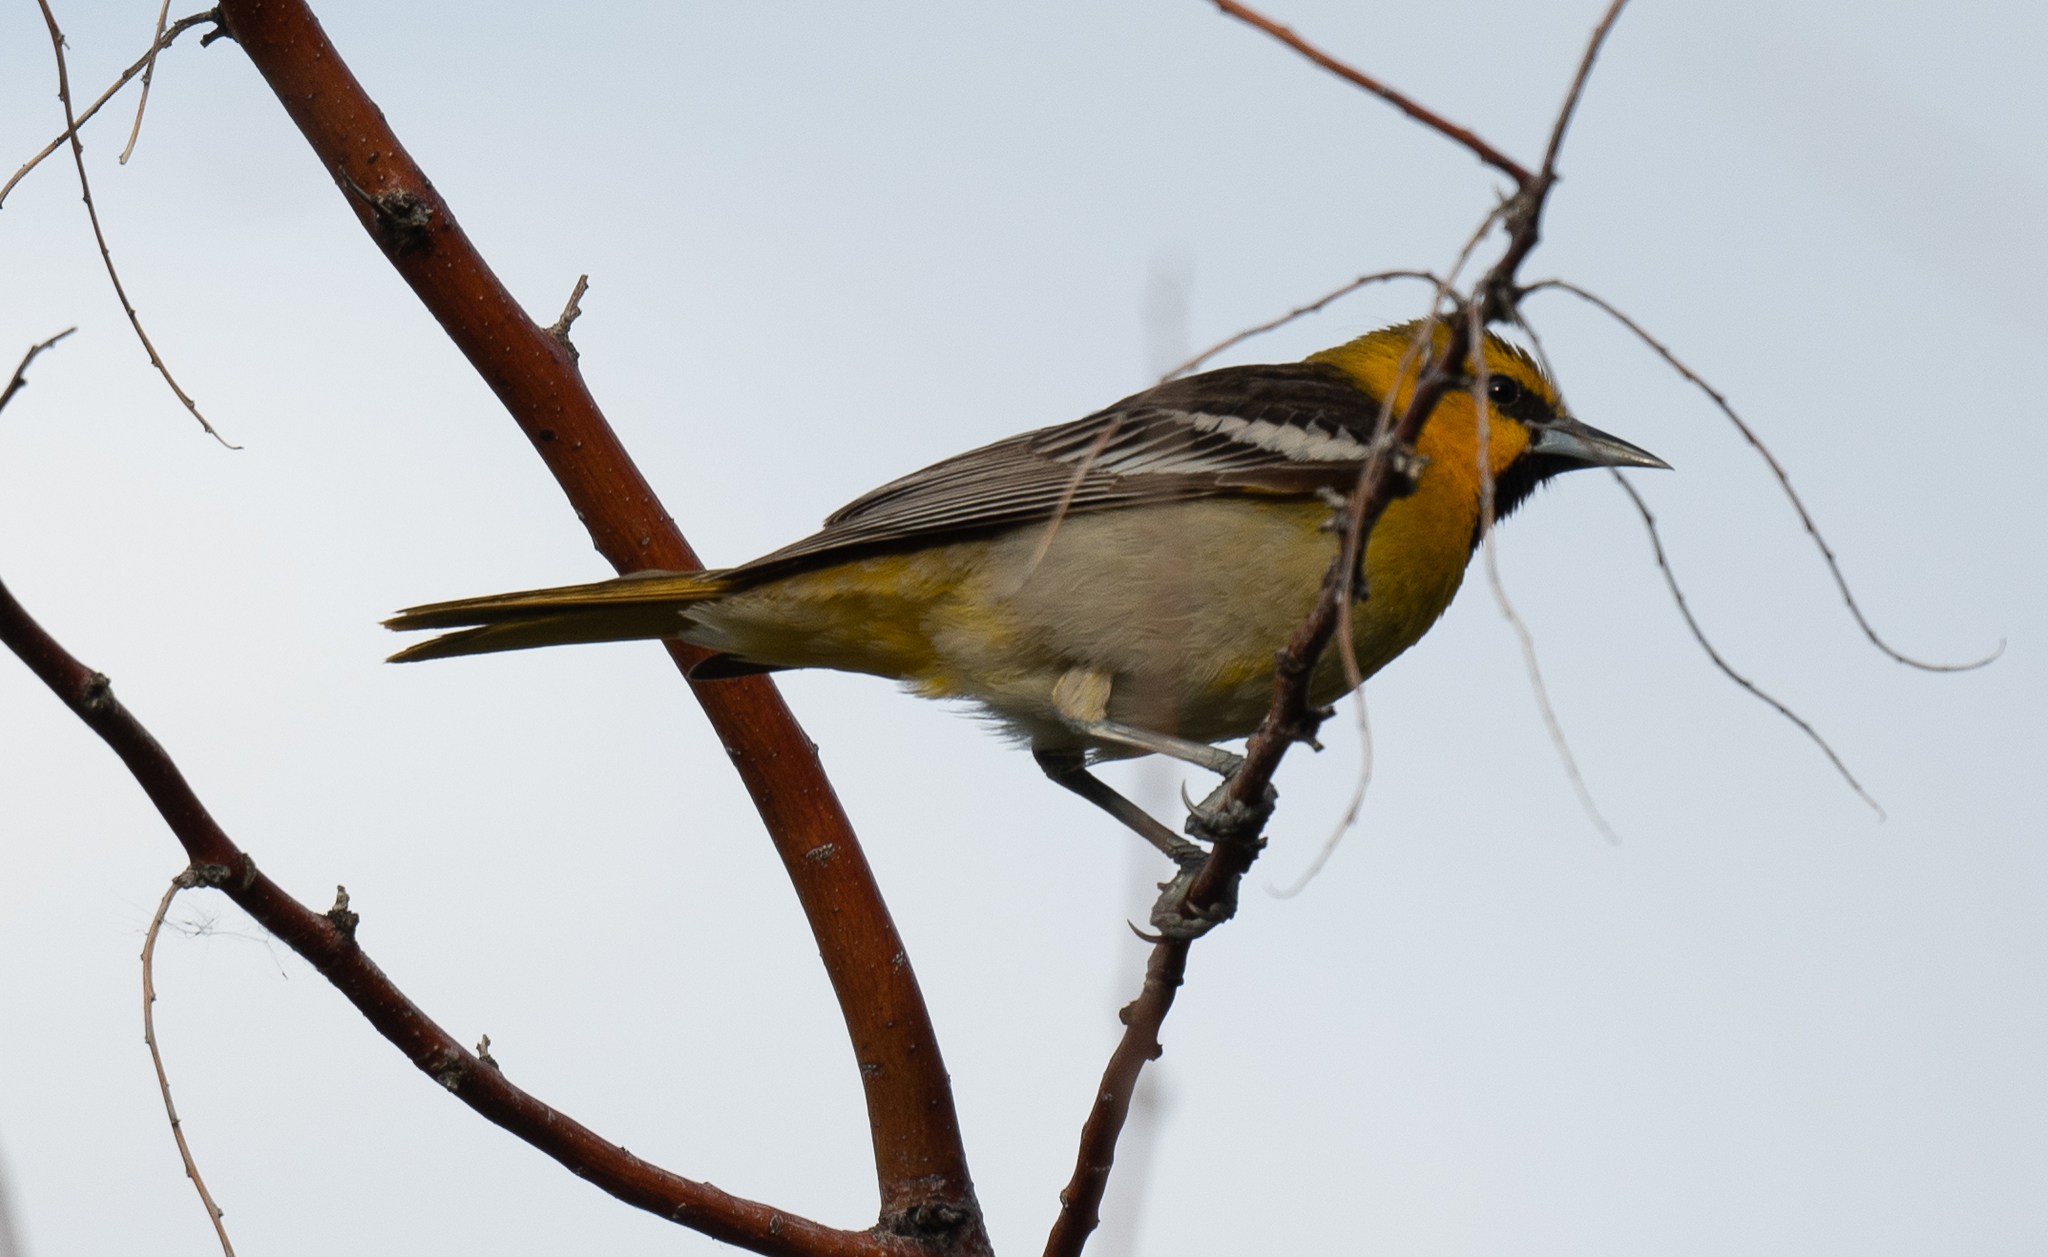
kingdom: Animalia
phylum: Chordata
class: Aves
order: Passeriformes
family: Icteridae
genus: Icterus
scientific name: Icterus bullockii
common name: Bullock's oriole
